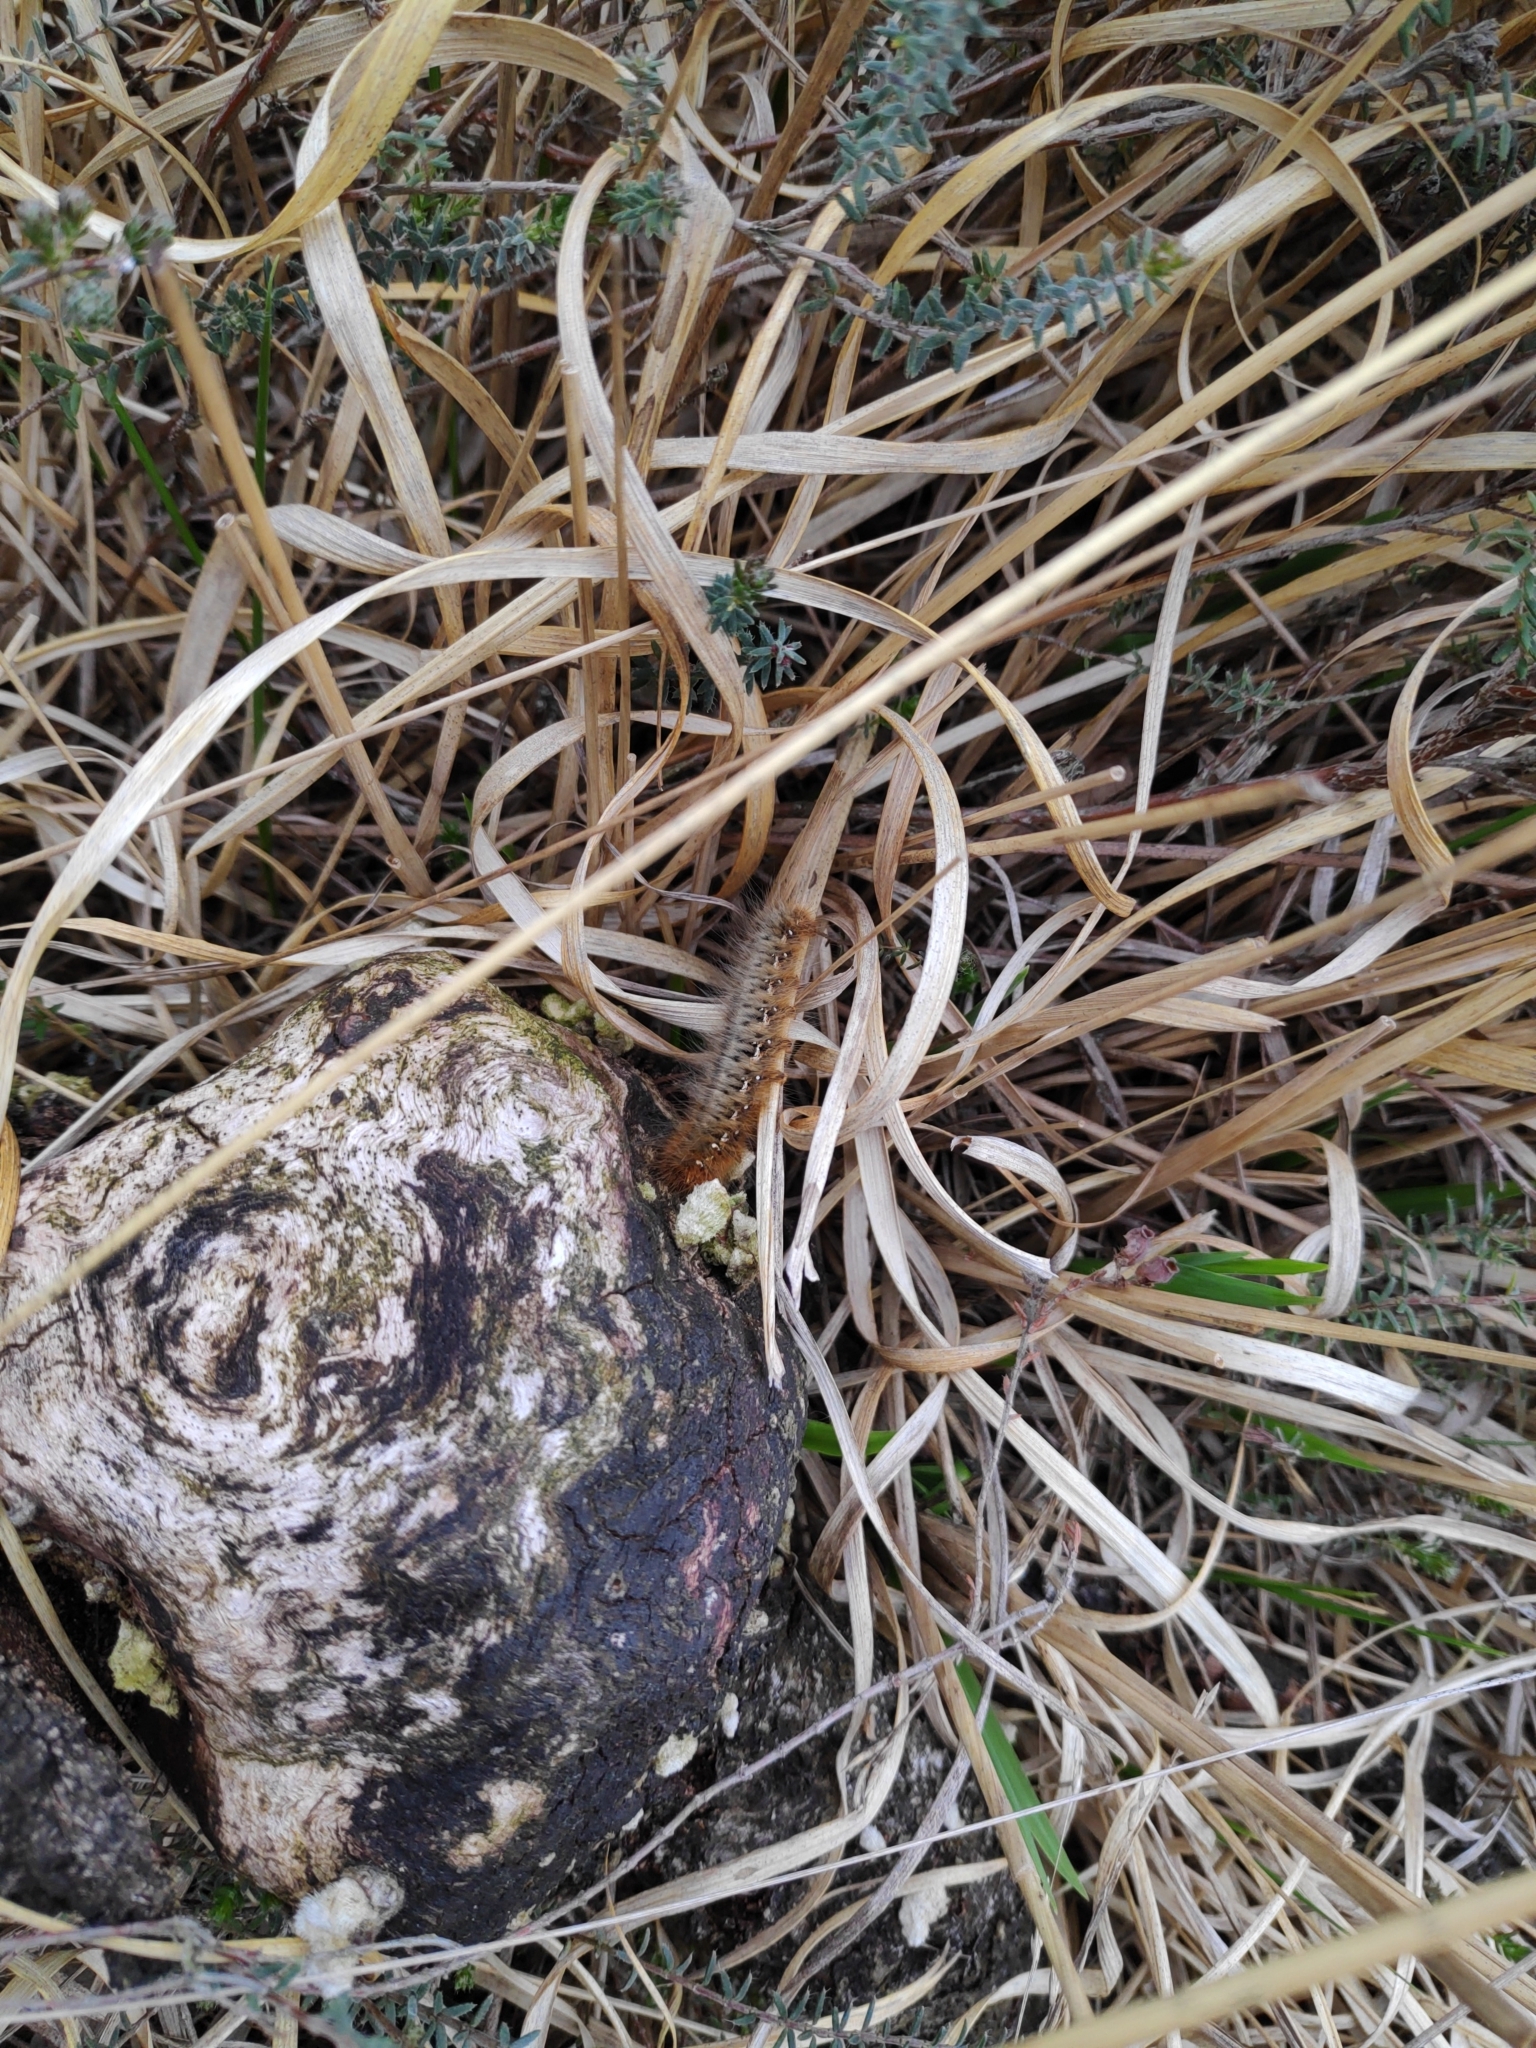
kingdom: Animalia
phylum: Arthropoda
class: Insecta
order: Lepidoptera
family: Lasiocampidae
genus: Lasiocampa
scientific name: Lasiocampa quercus
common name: Oak eggar
